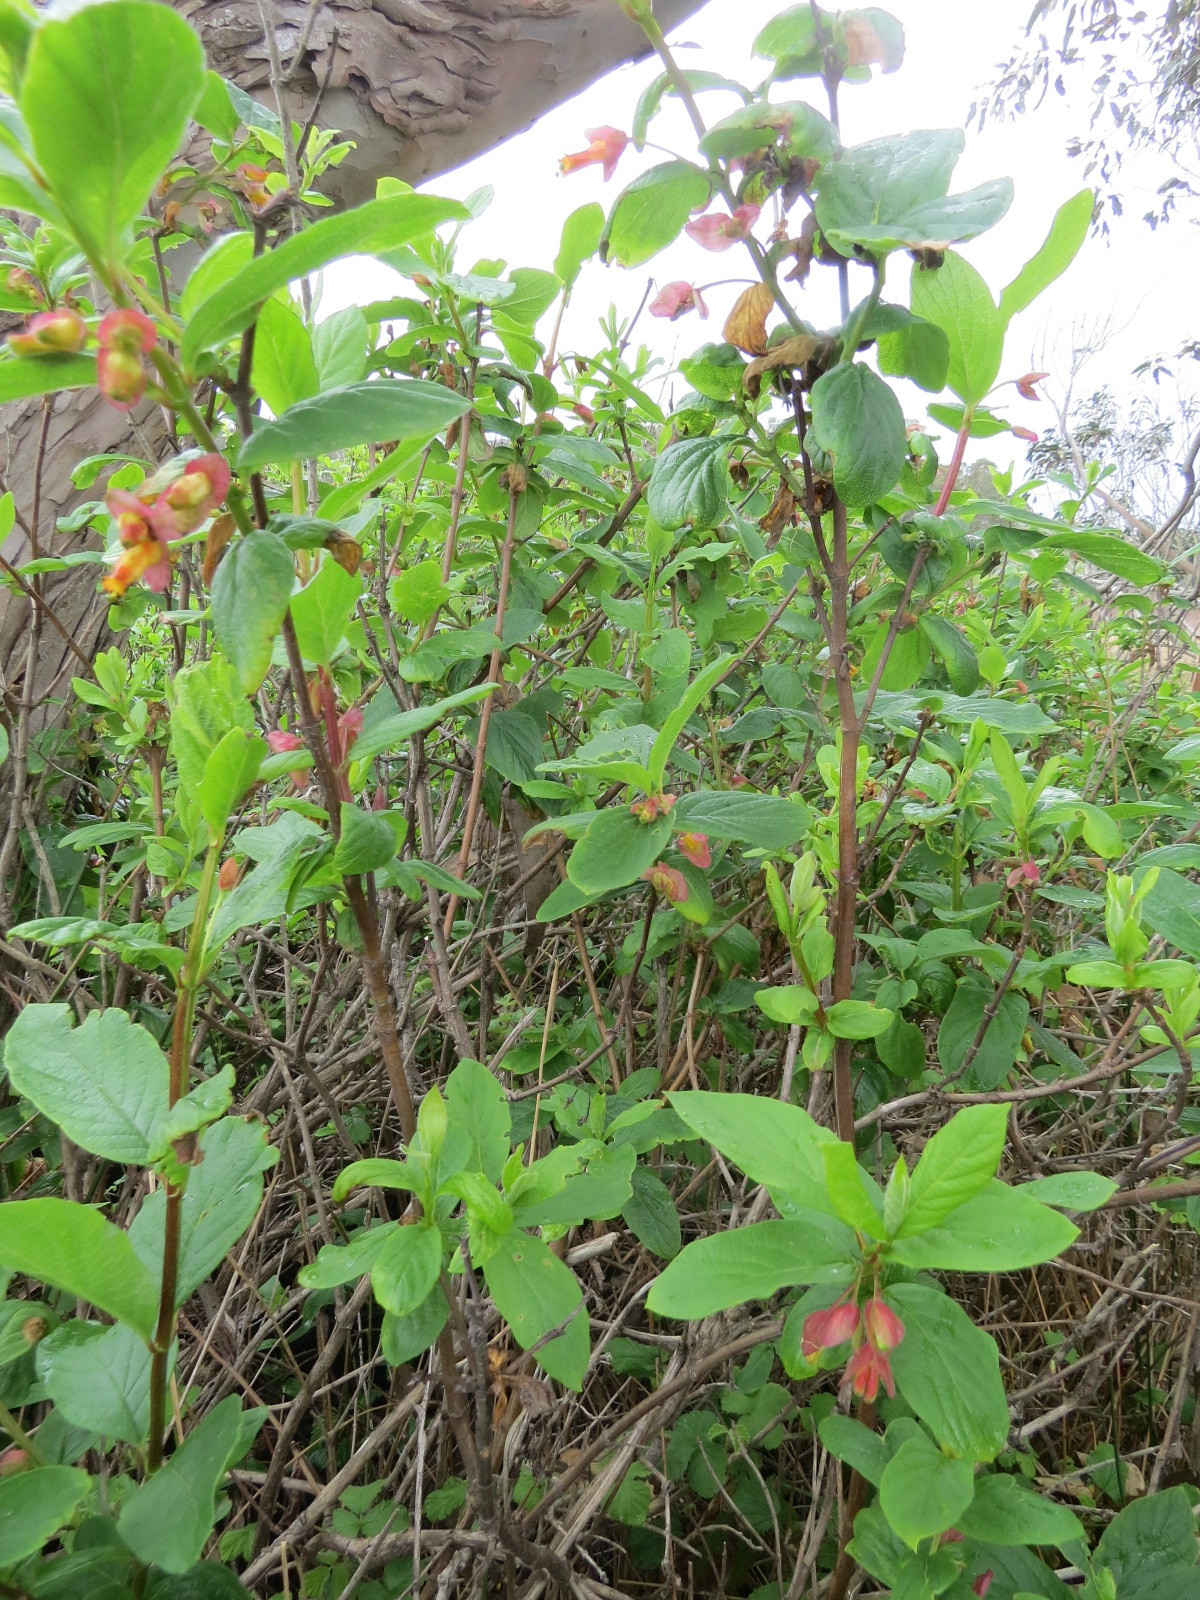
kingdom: Plantae
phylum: Tracheophyta
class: Magnoliopsida
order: Dipsacales
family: Caprifoliaceae
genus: Lonicera
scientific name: Lonicera involucrata
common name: Californian honeysuckle
